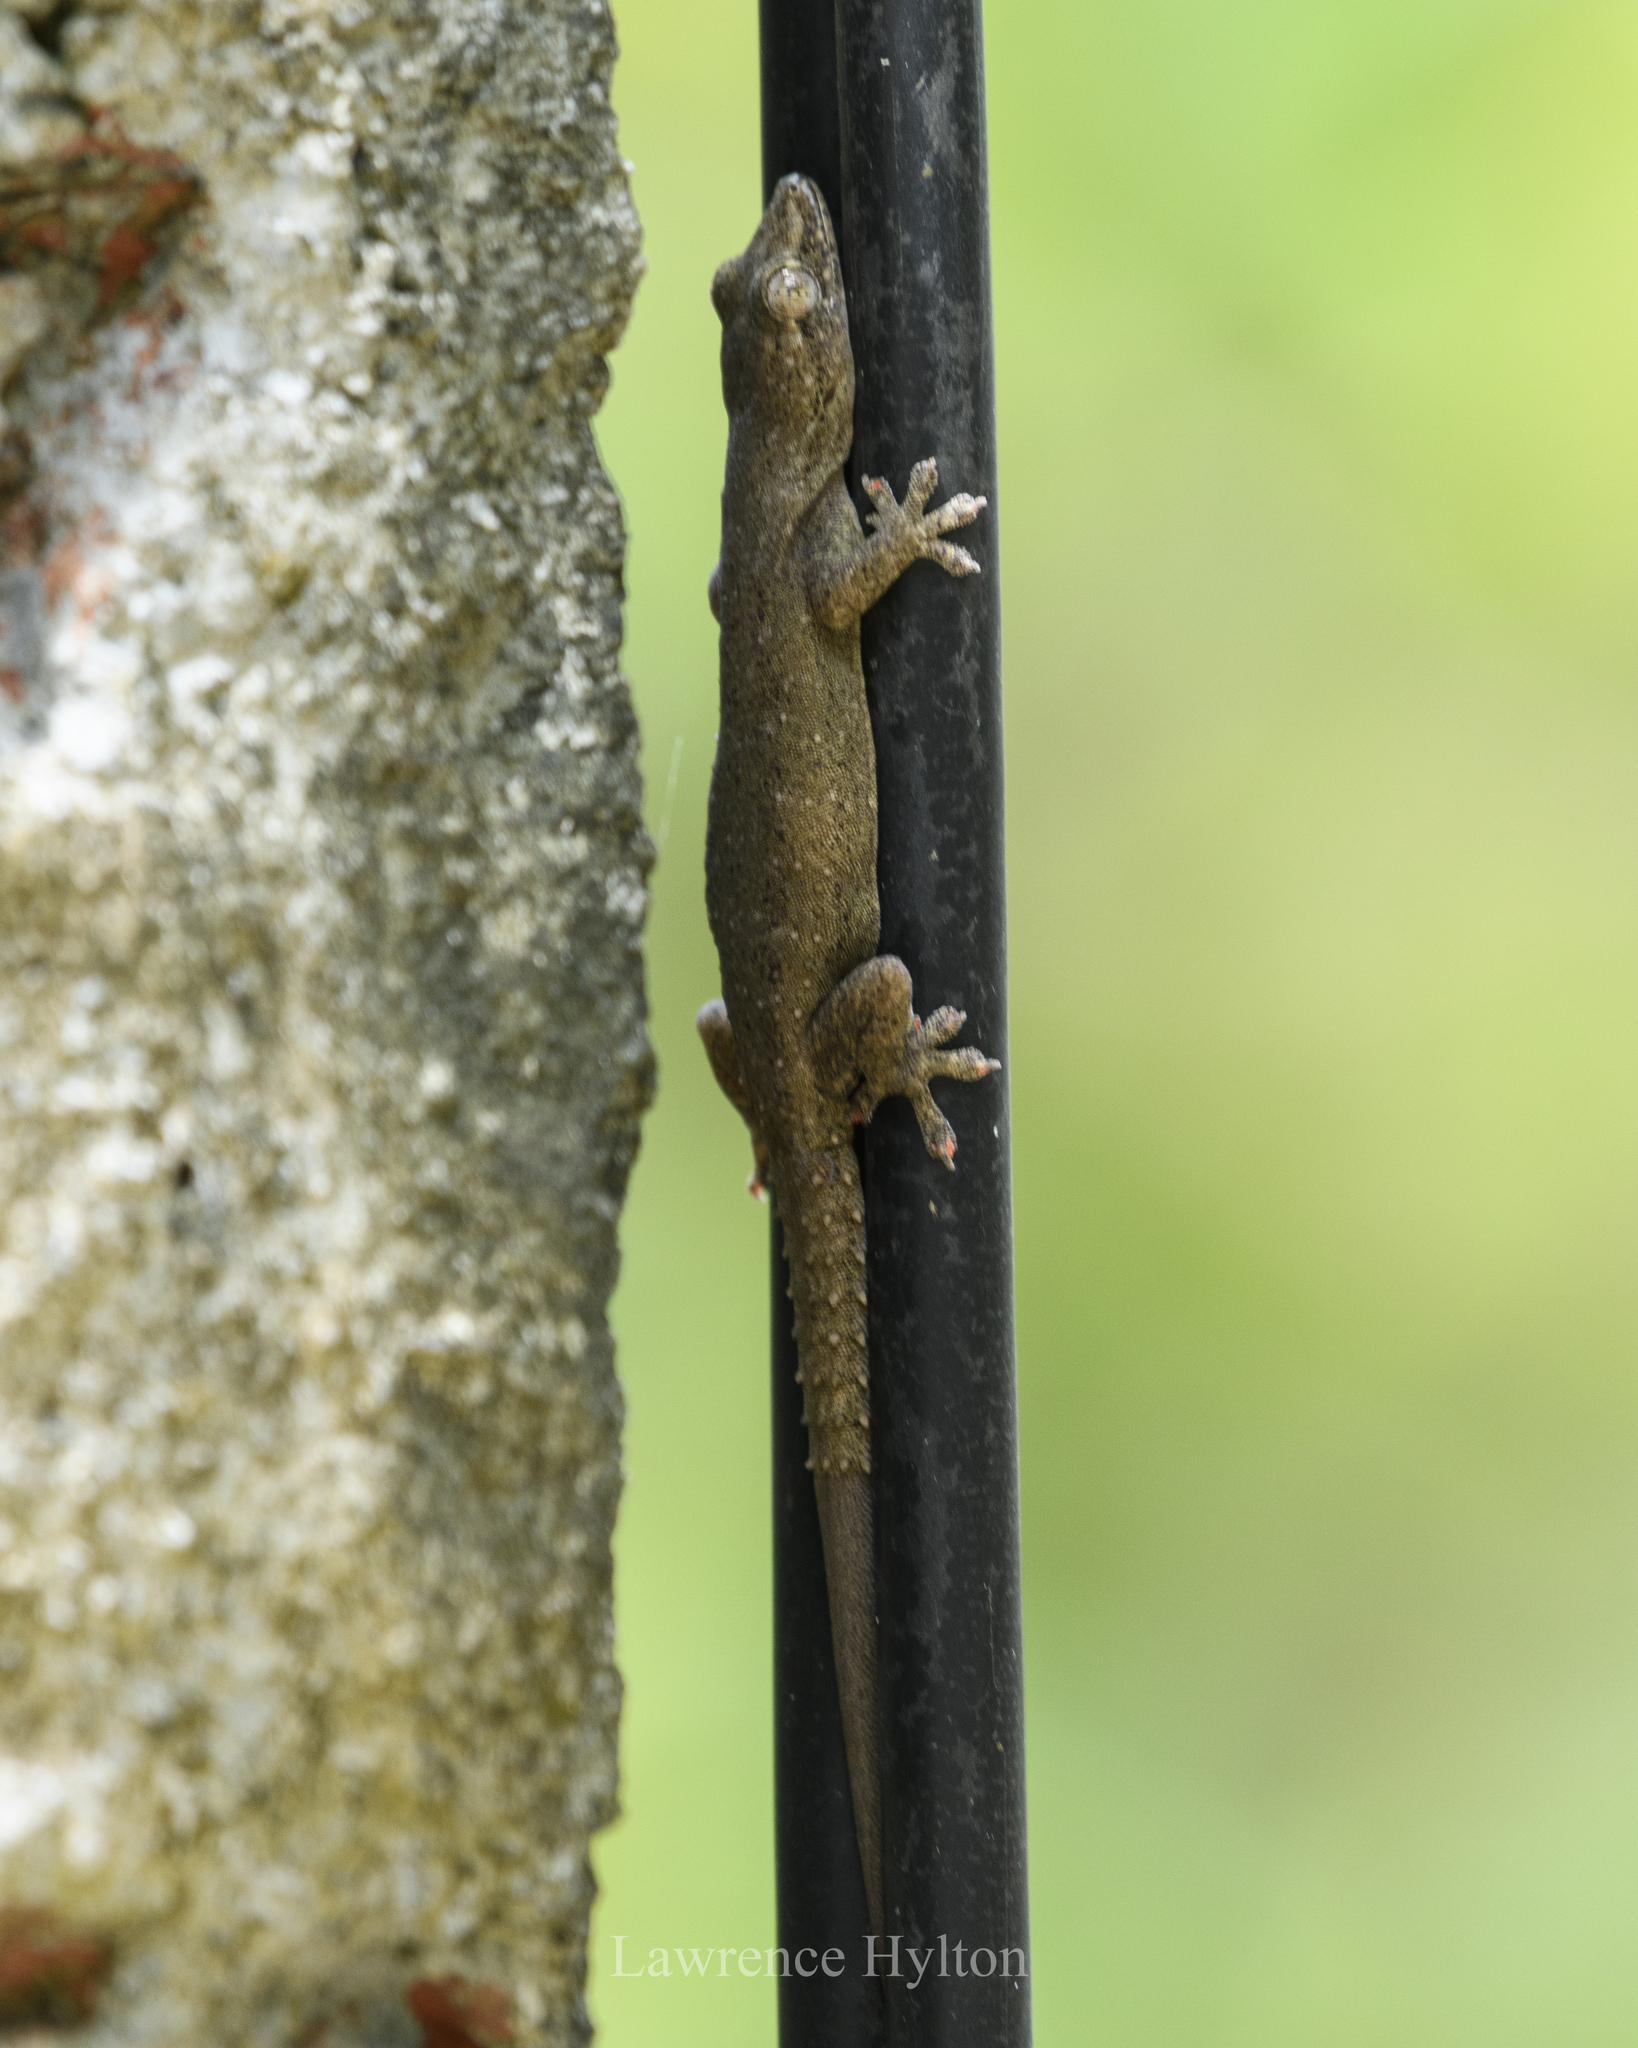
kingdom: Animalia
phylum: Chordata
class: Squamata
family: Gekkonidae
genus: Hemidactylus
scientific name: Hemidactylus frenatus
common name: Common house gecko
